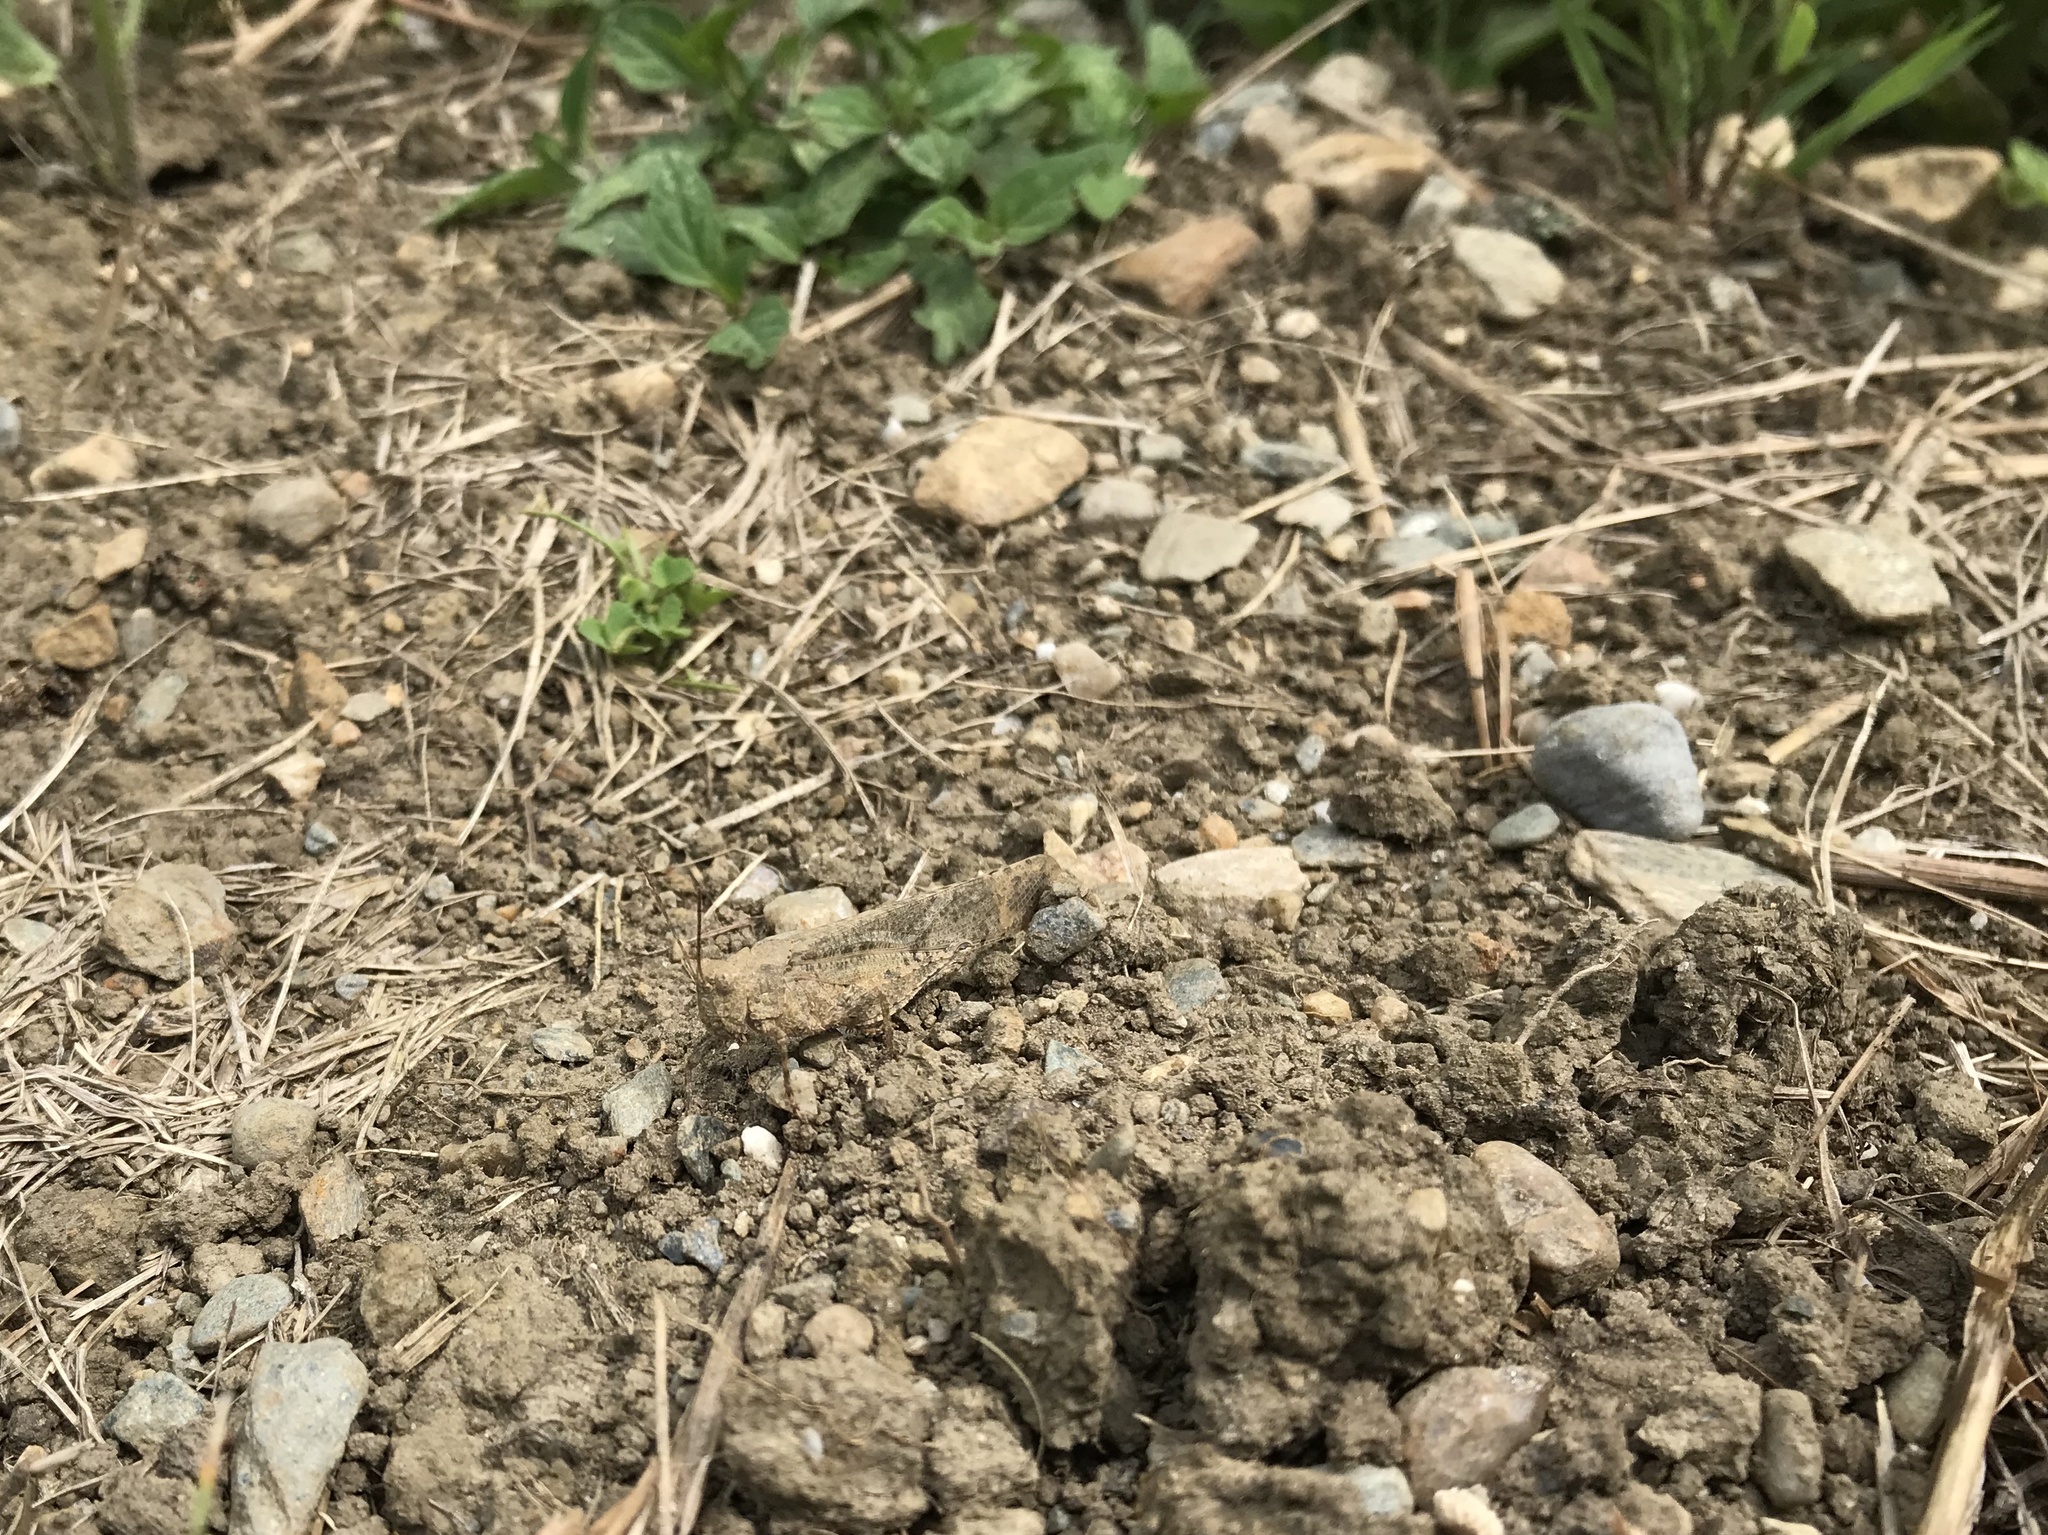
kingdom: Animalia
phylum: Arthropoda
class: Insecta
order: Orthoptera
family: Acrididae
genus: Dissosteira
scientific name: Dissosteira carolina
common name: Carolina grasshopper
